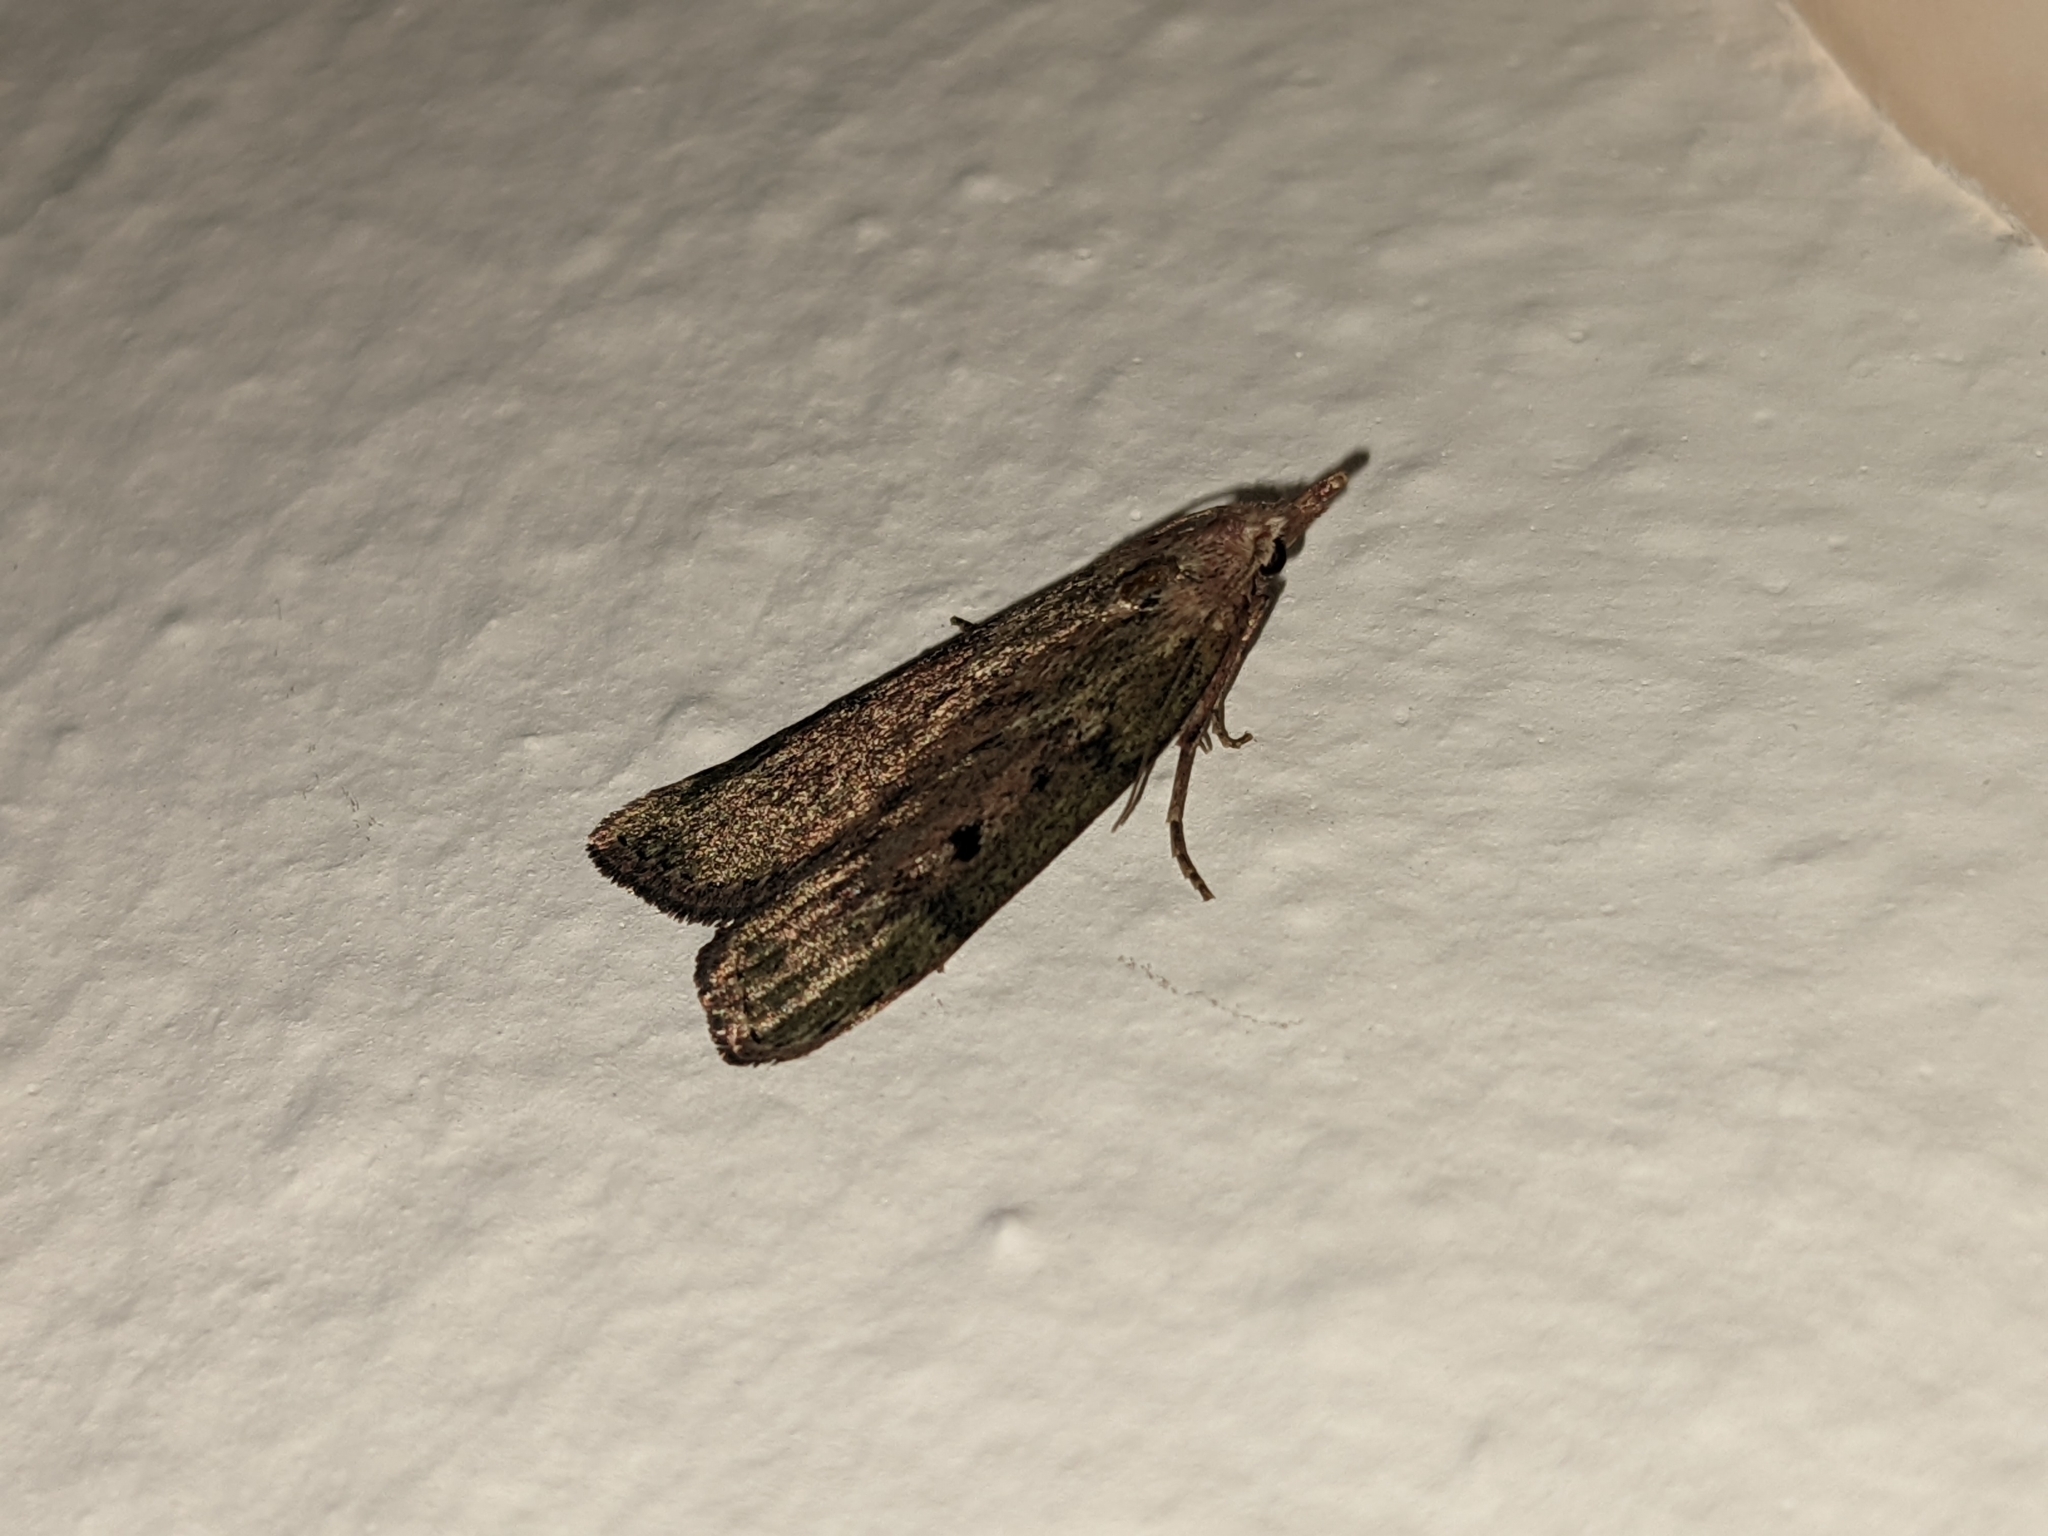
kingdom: Animalia
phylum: Arthropoda
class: Insecta
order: Lepidoptera
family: Pyralidae
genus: Aphomia
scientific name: Aphomia sociella
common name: Bee moth
